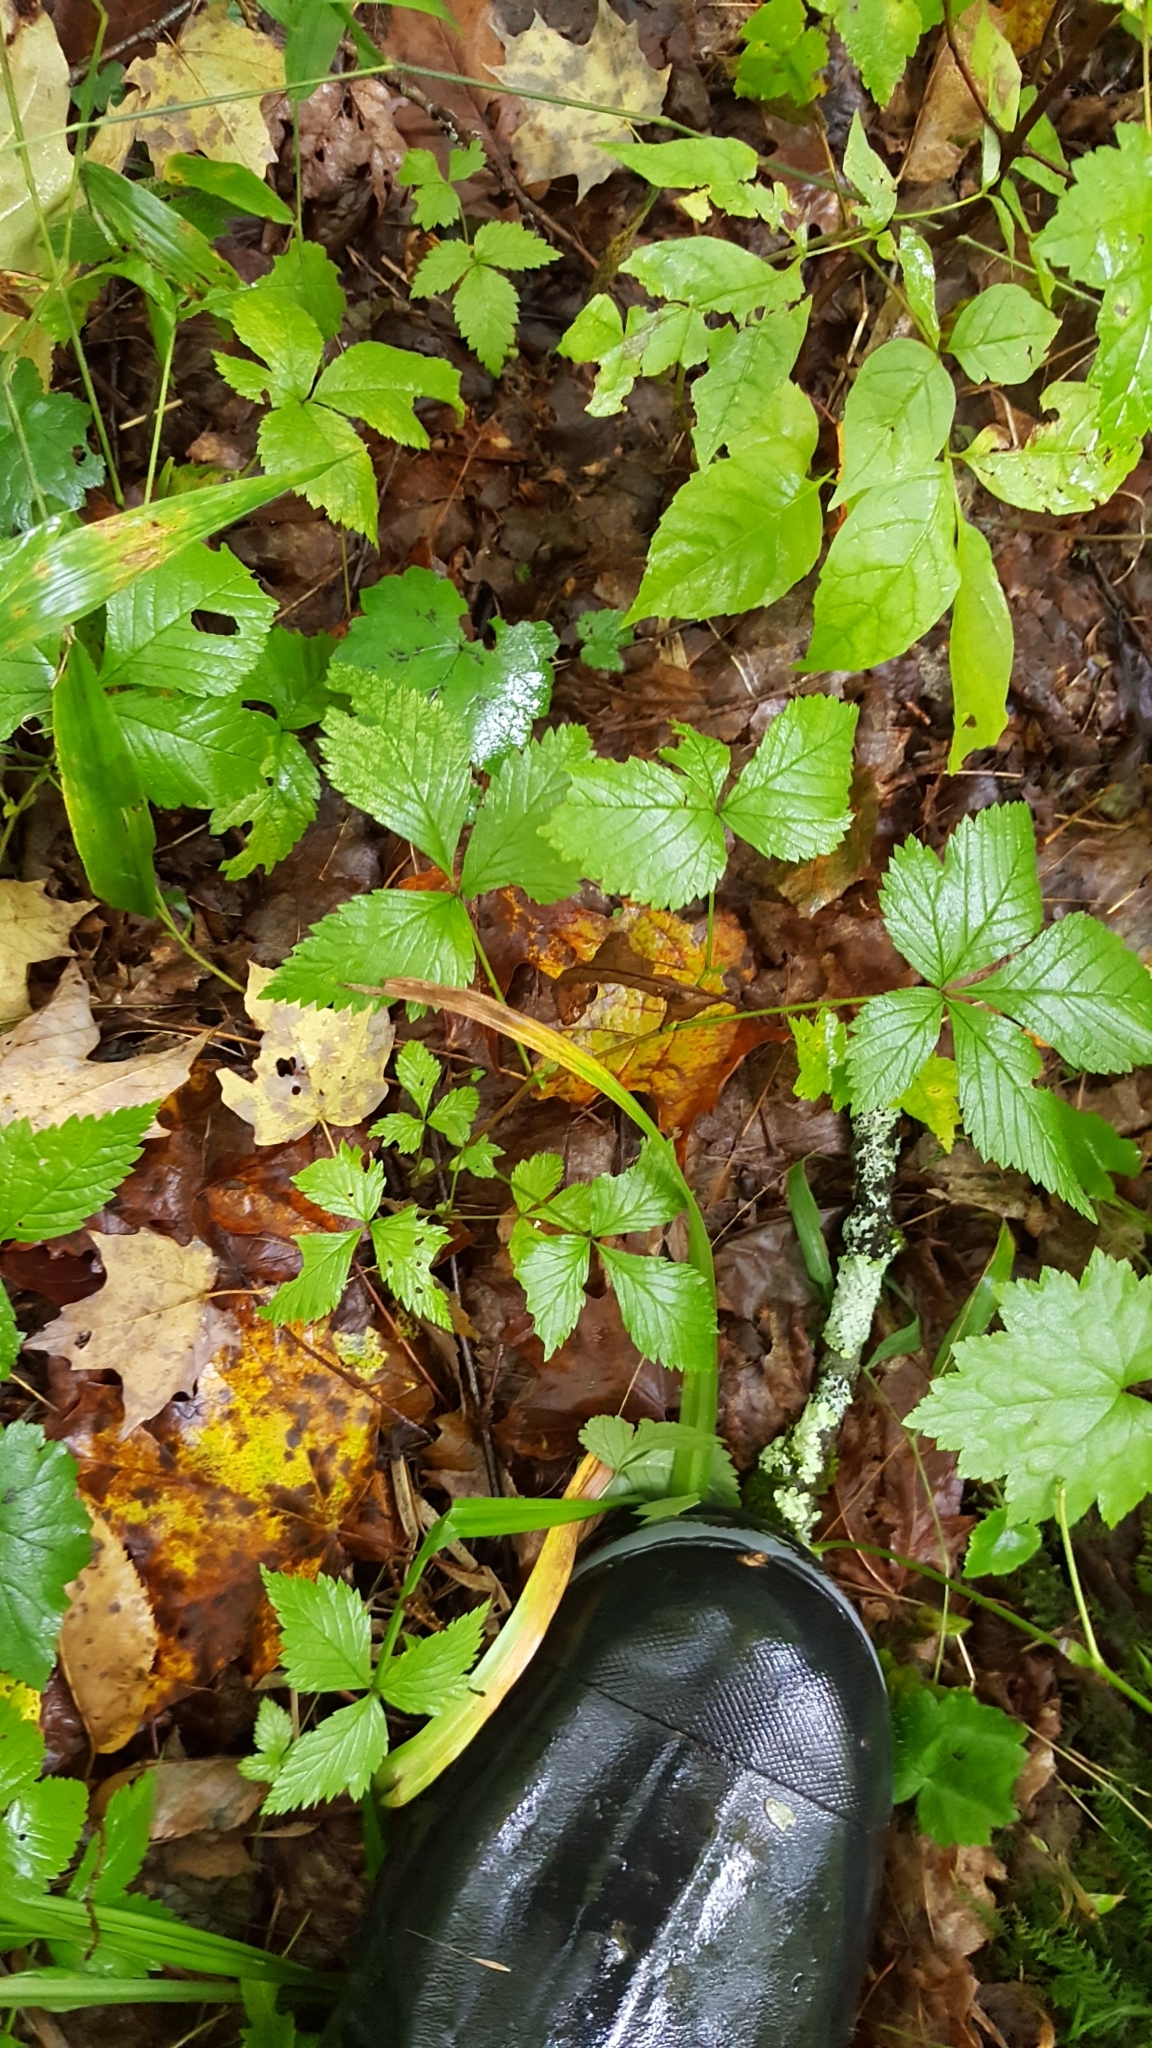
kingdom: Plantae
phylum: Tracheophyta
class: Magnoliopsida
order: Rosales
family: Rosaceae
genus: Rubus
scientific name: Rubus pubescens
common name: Dwarf raspberry
